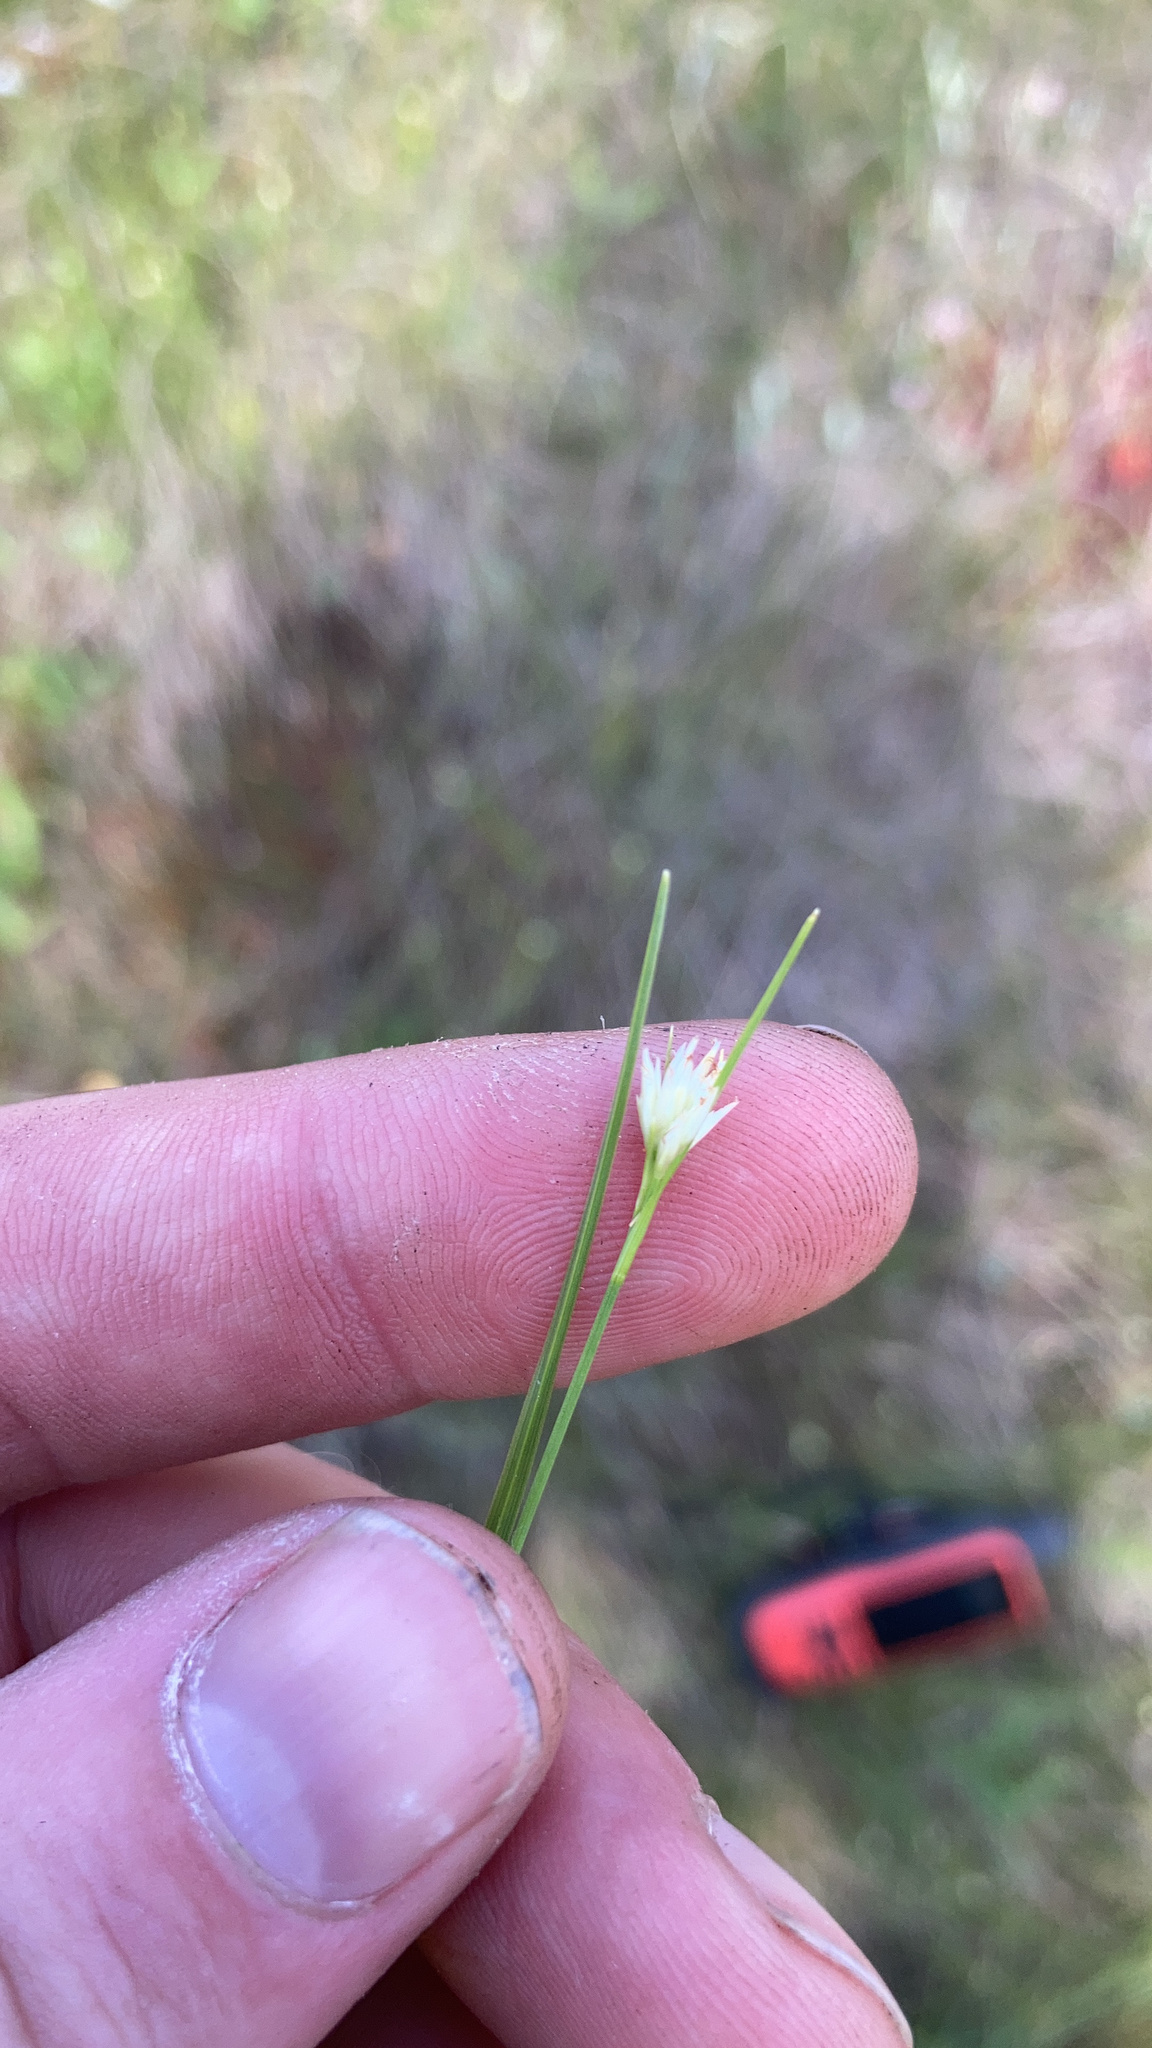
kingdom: Plantae
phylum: Tracheophyta
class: Liliopsida
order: Poales
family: Cyperaceae
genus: Rhynchospora
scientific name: Rhynchospora alba
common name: White beak-sedge
